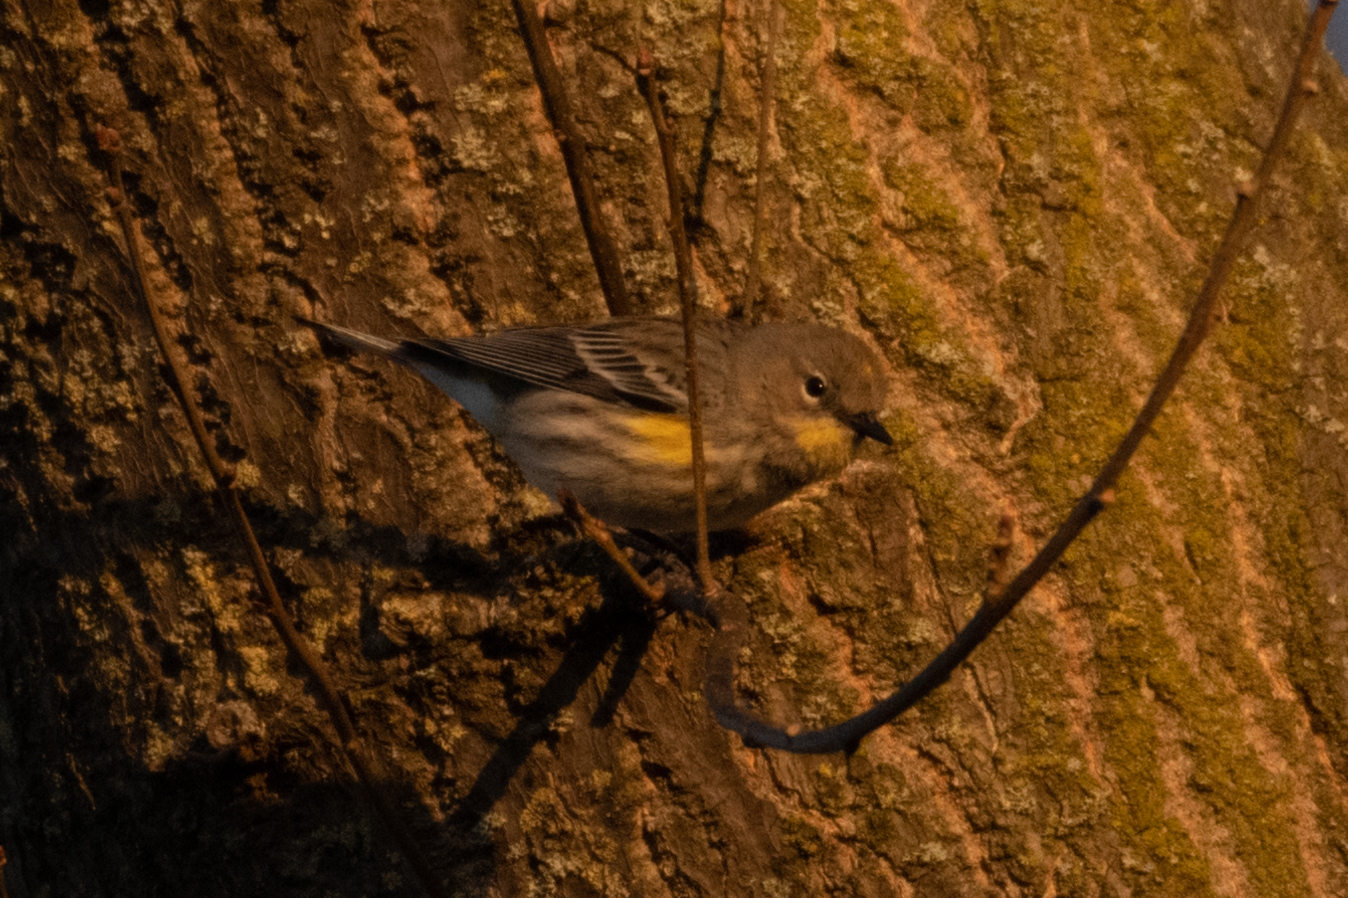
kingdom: Animalia
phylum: Chordata
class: Aves
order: Passeriformes
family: Parulidae
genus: Setophaga
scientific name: Setophaga coronata
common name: Myrtle warbler
